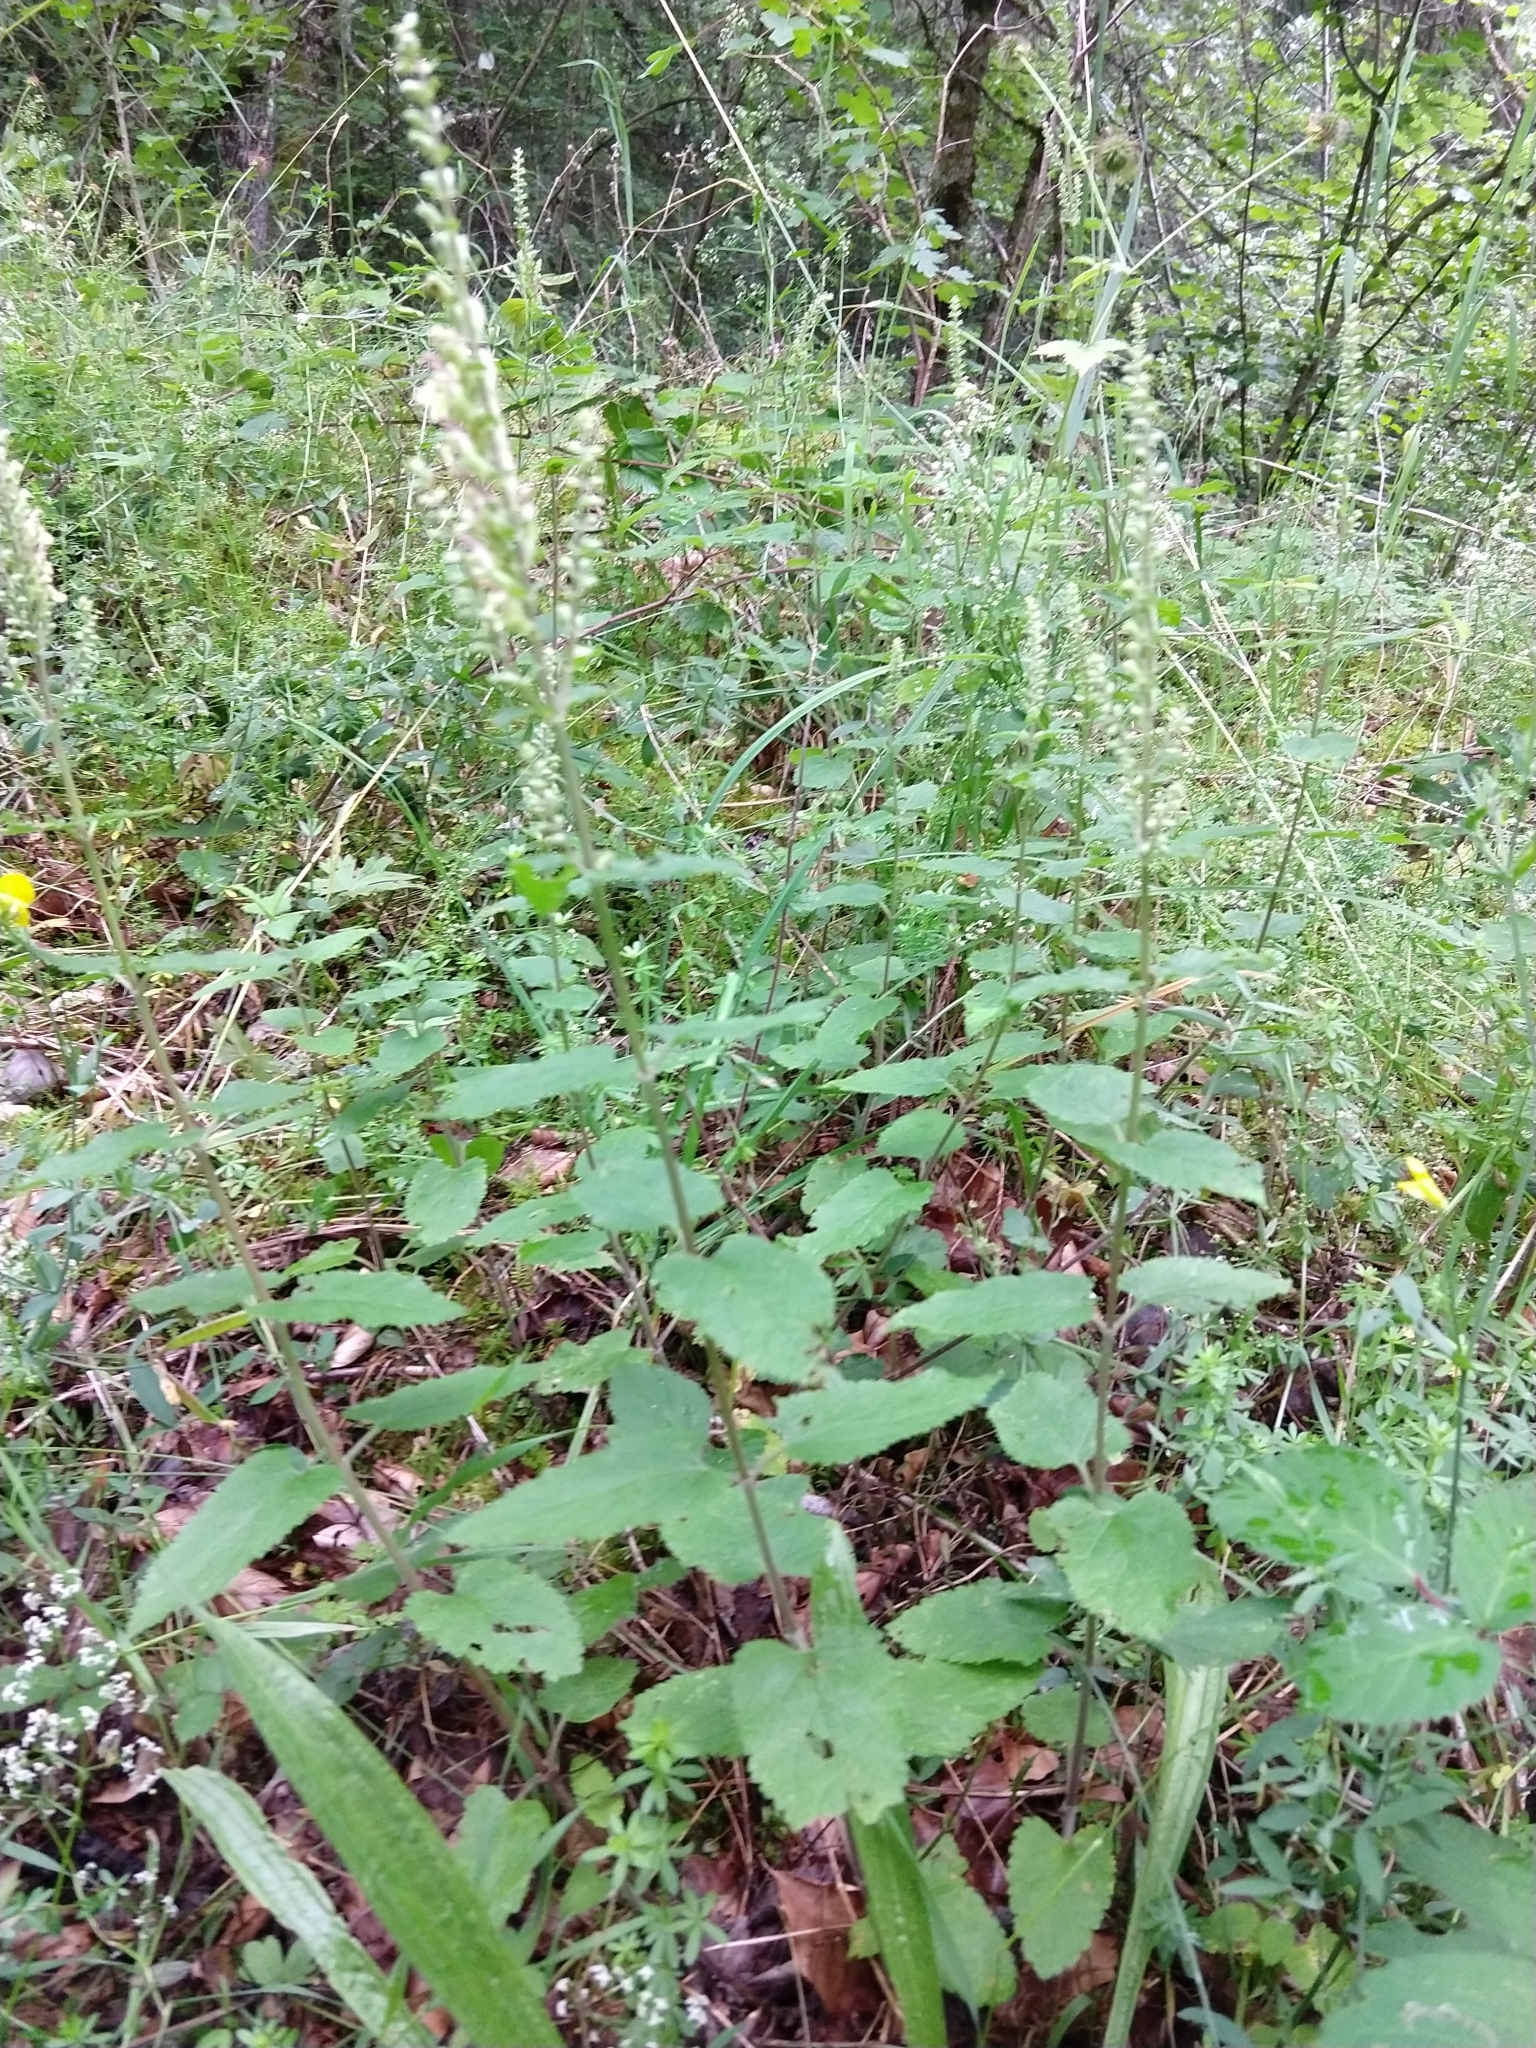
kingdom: Plantae
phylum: Tracheophyta
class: Magnoliopsida
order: Lamiales
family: Lamiaceae
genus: Teucrium
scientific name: Teucrium scorodonia
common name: Woodland germander
